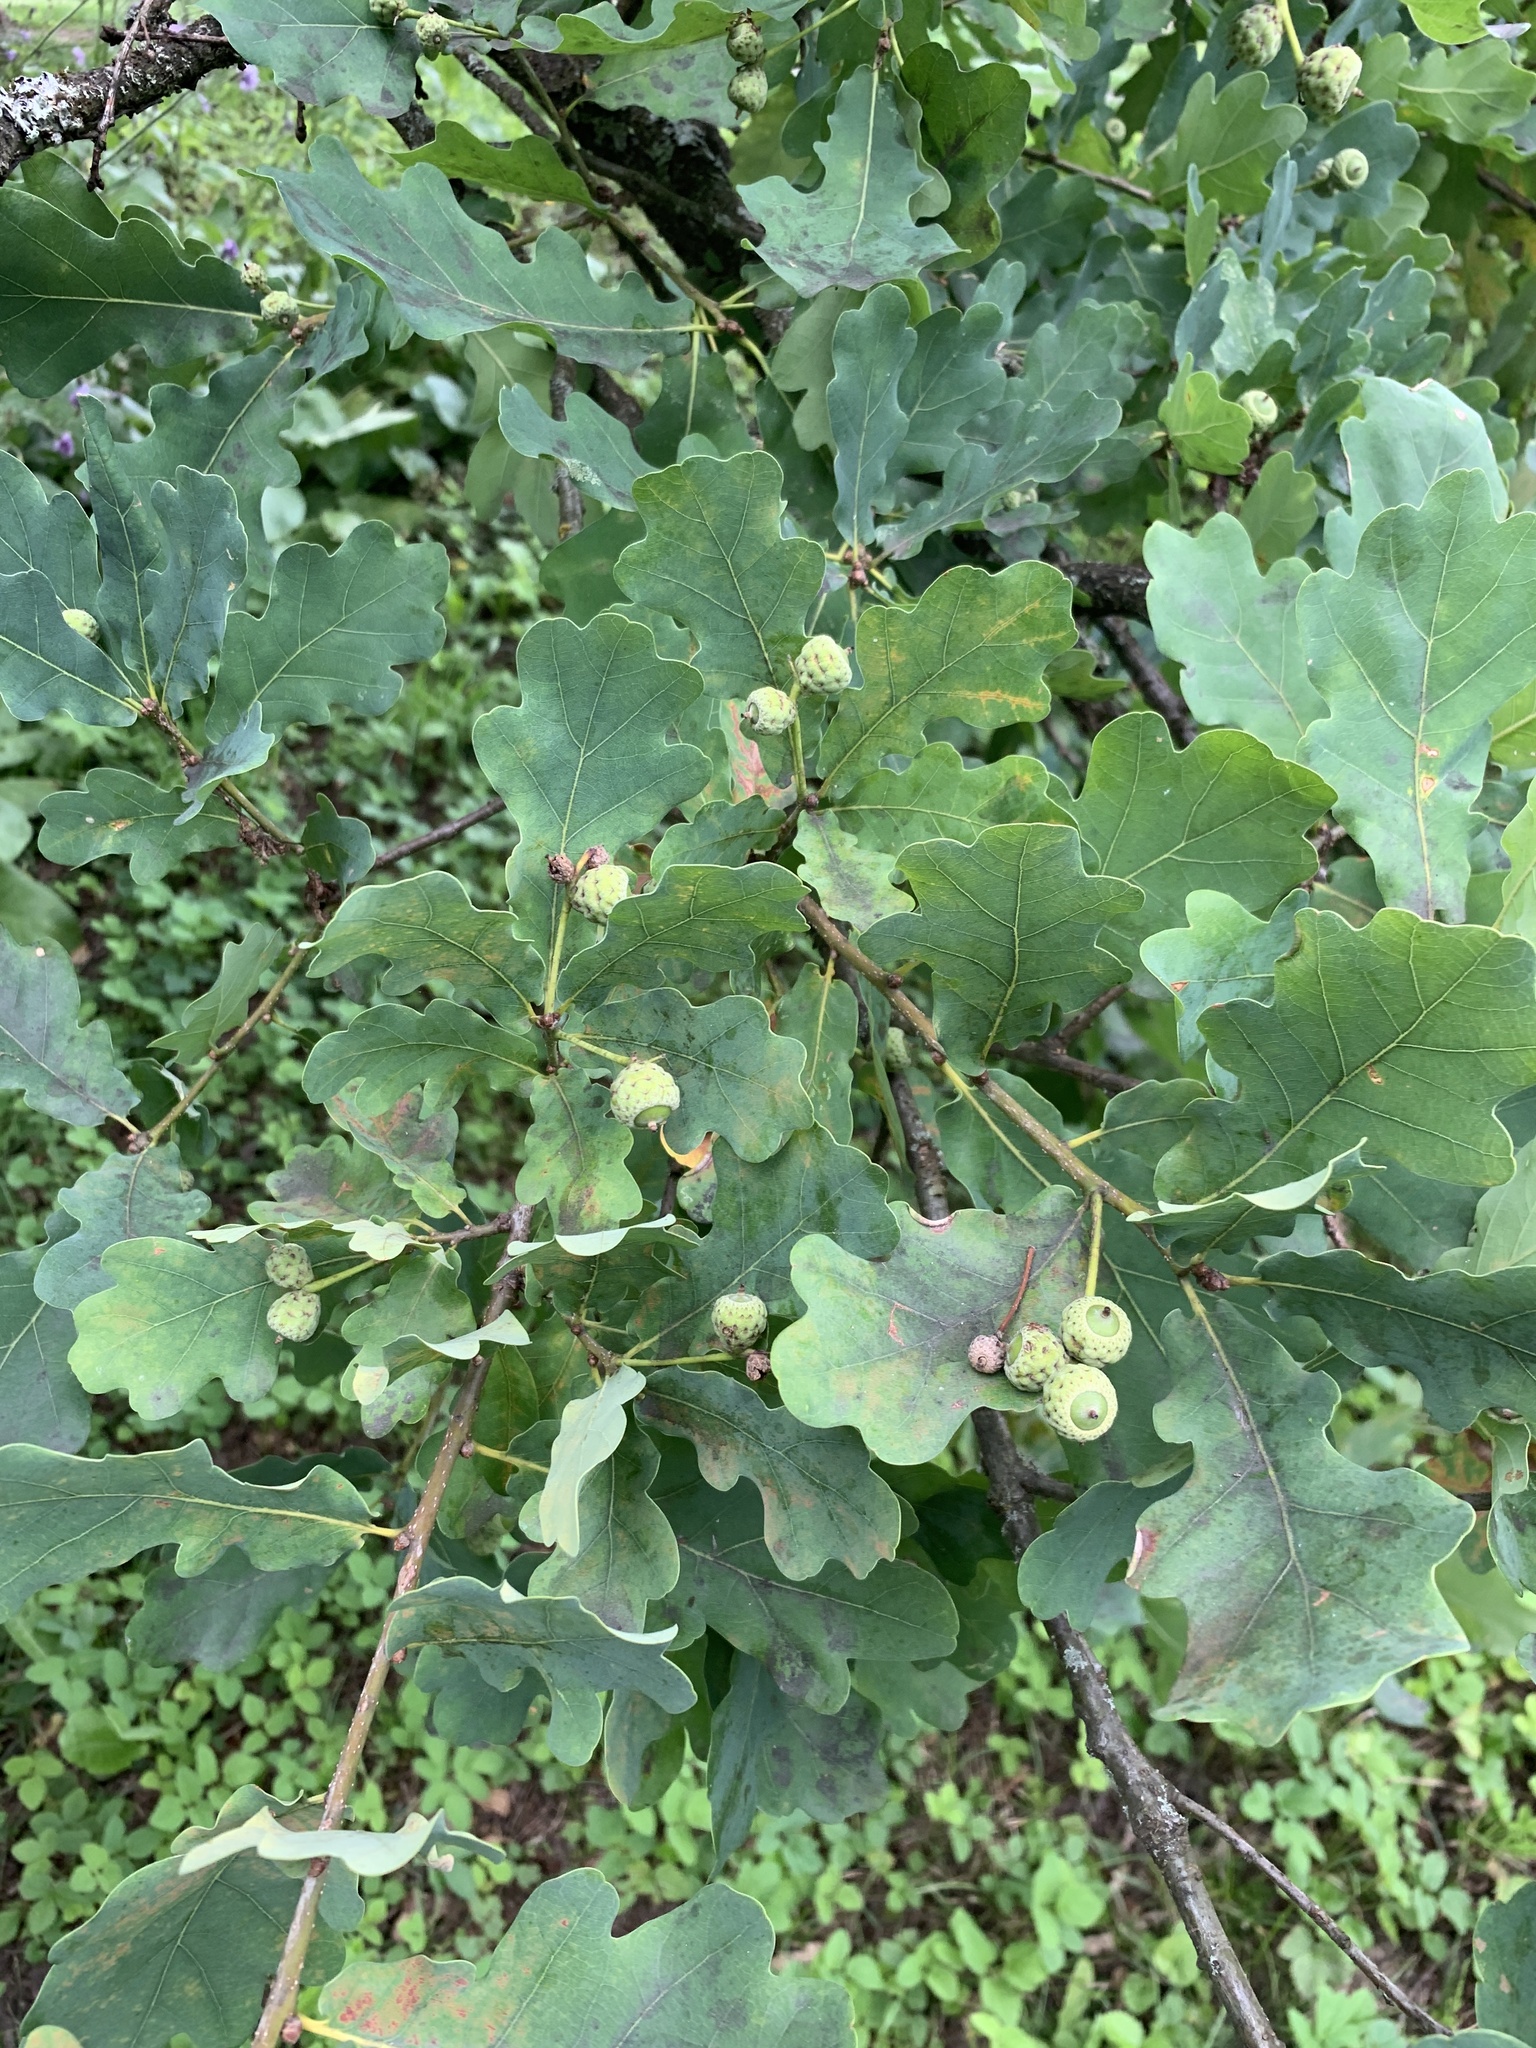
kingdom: Plantae
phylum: Tracheophyta
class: Magnoliopsida
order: Fagales
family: Fagaceae
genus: Quercus
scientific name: Quercus robur
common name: Pedunculate oak
